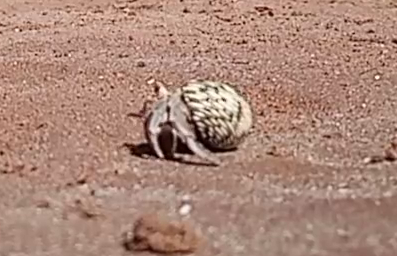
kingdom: Animalia
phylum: Arthropoda
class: Malacostraca
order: Decapoda
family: Coenobitidae
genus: Coenobita
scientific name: Coenobita compressus
